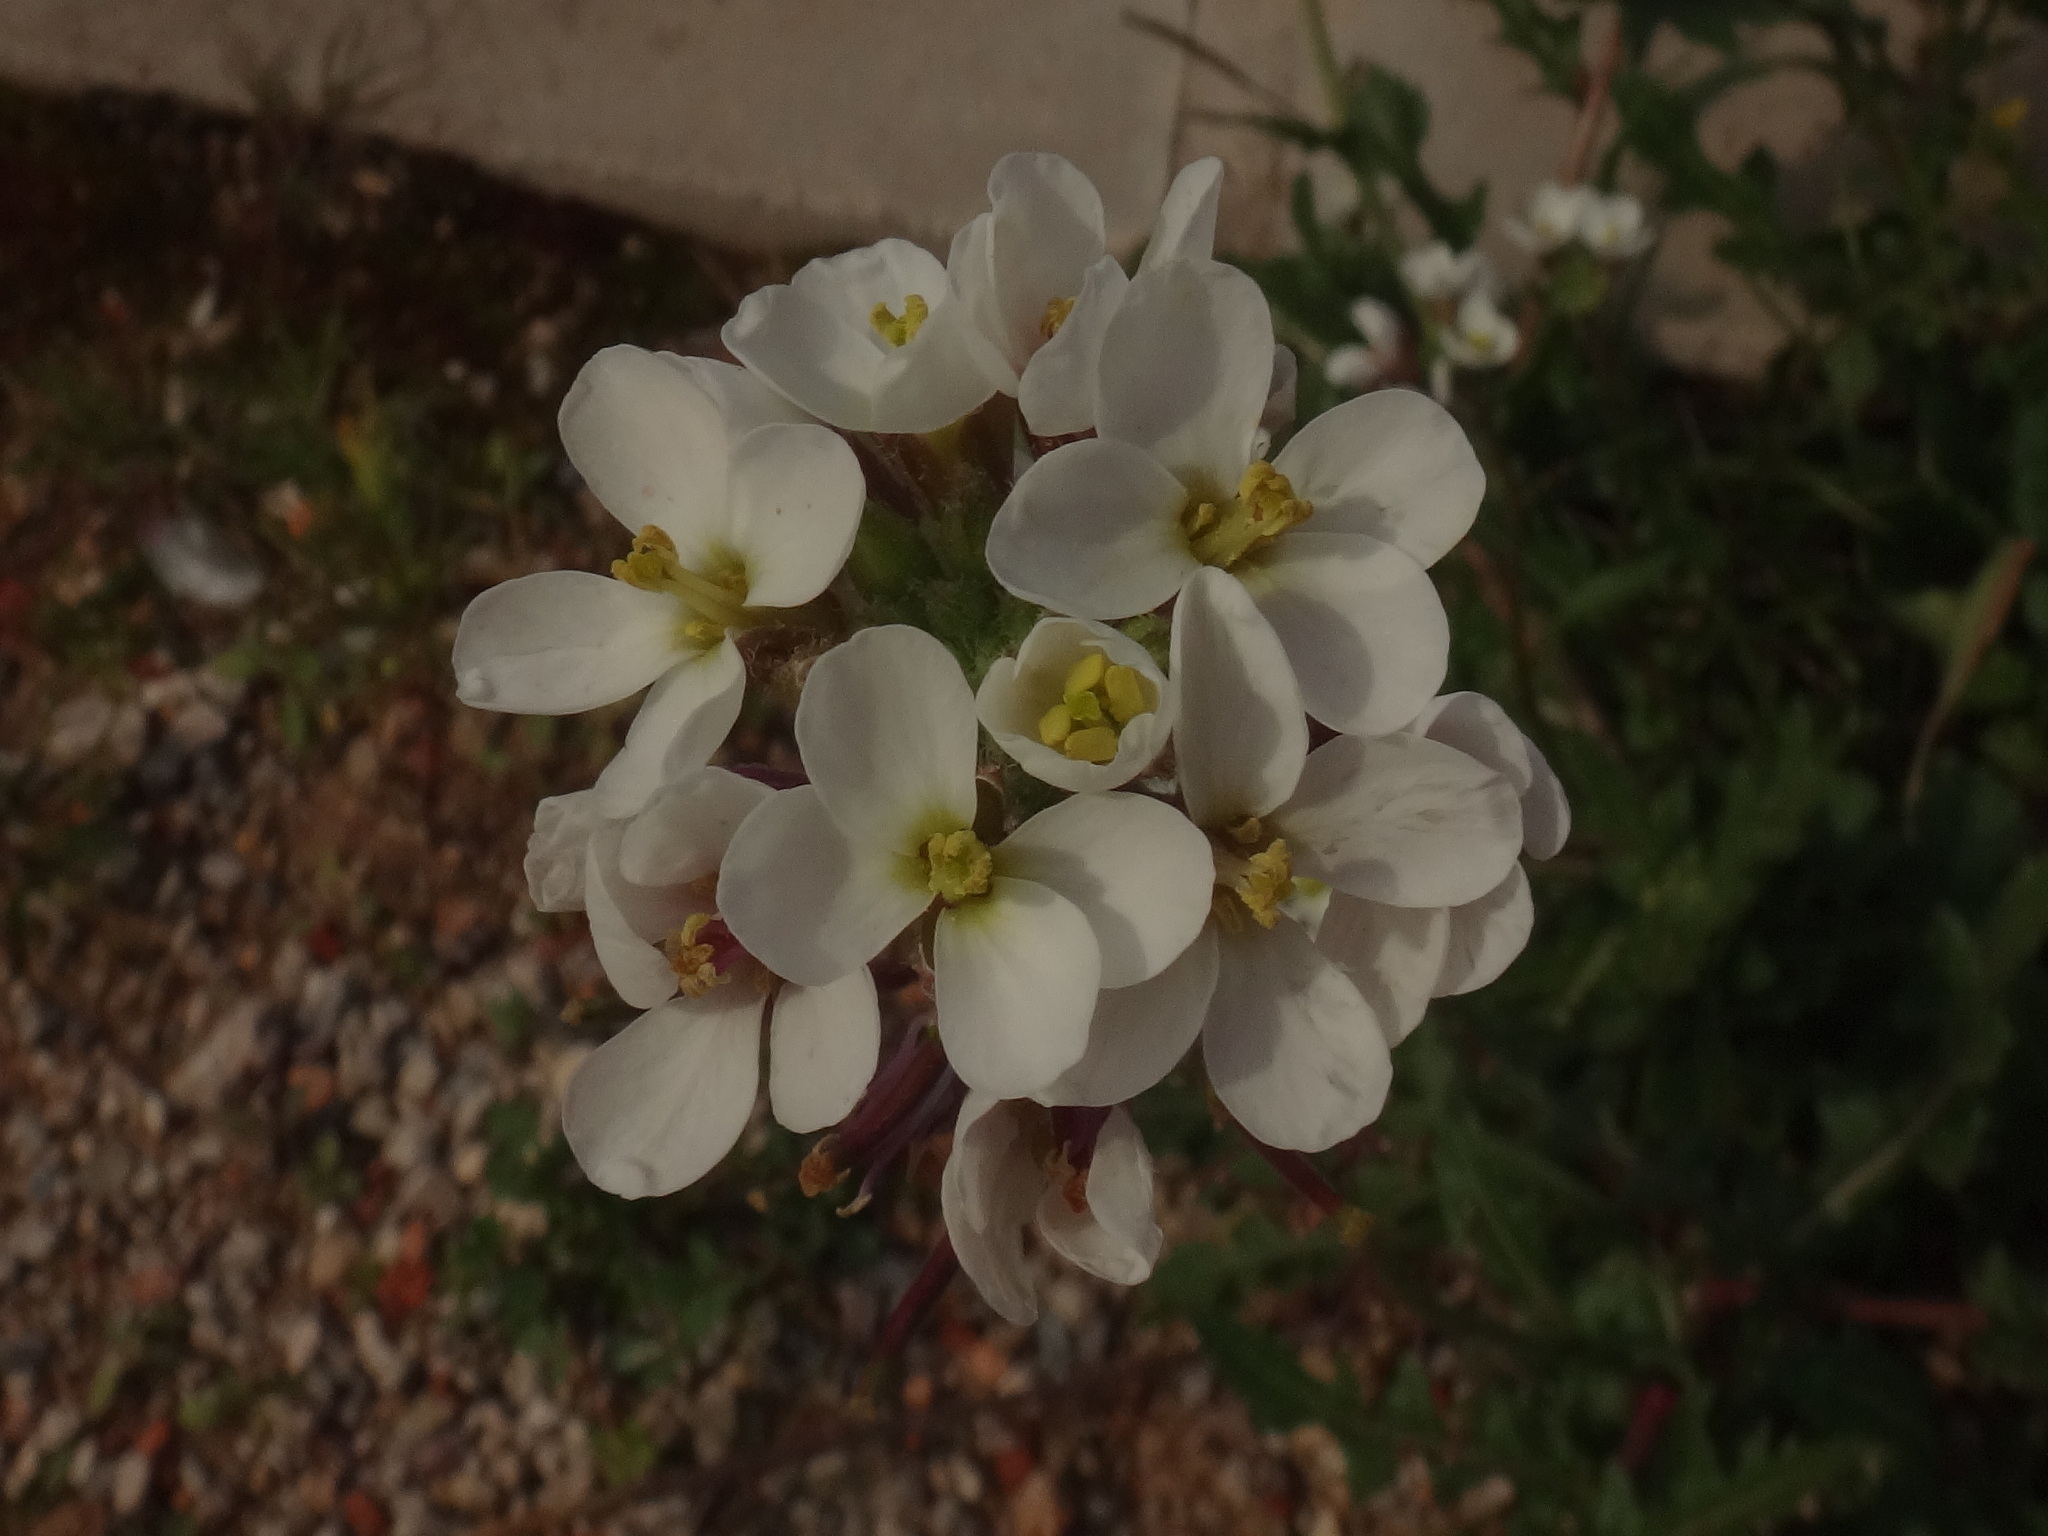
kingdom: Plantae
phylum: Tracheophyta
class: Magnoliopsida
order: Brassicales
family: Brassicaceae
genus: Diplotaxis
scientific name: Diplotaxis erucoides
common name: White rocket
